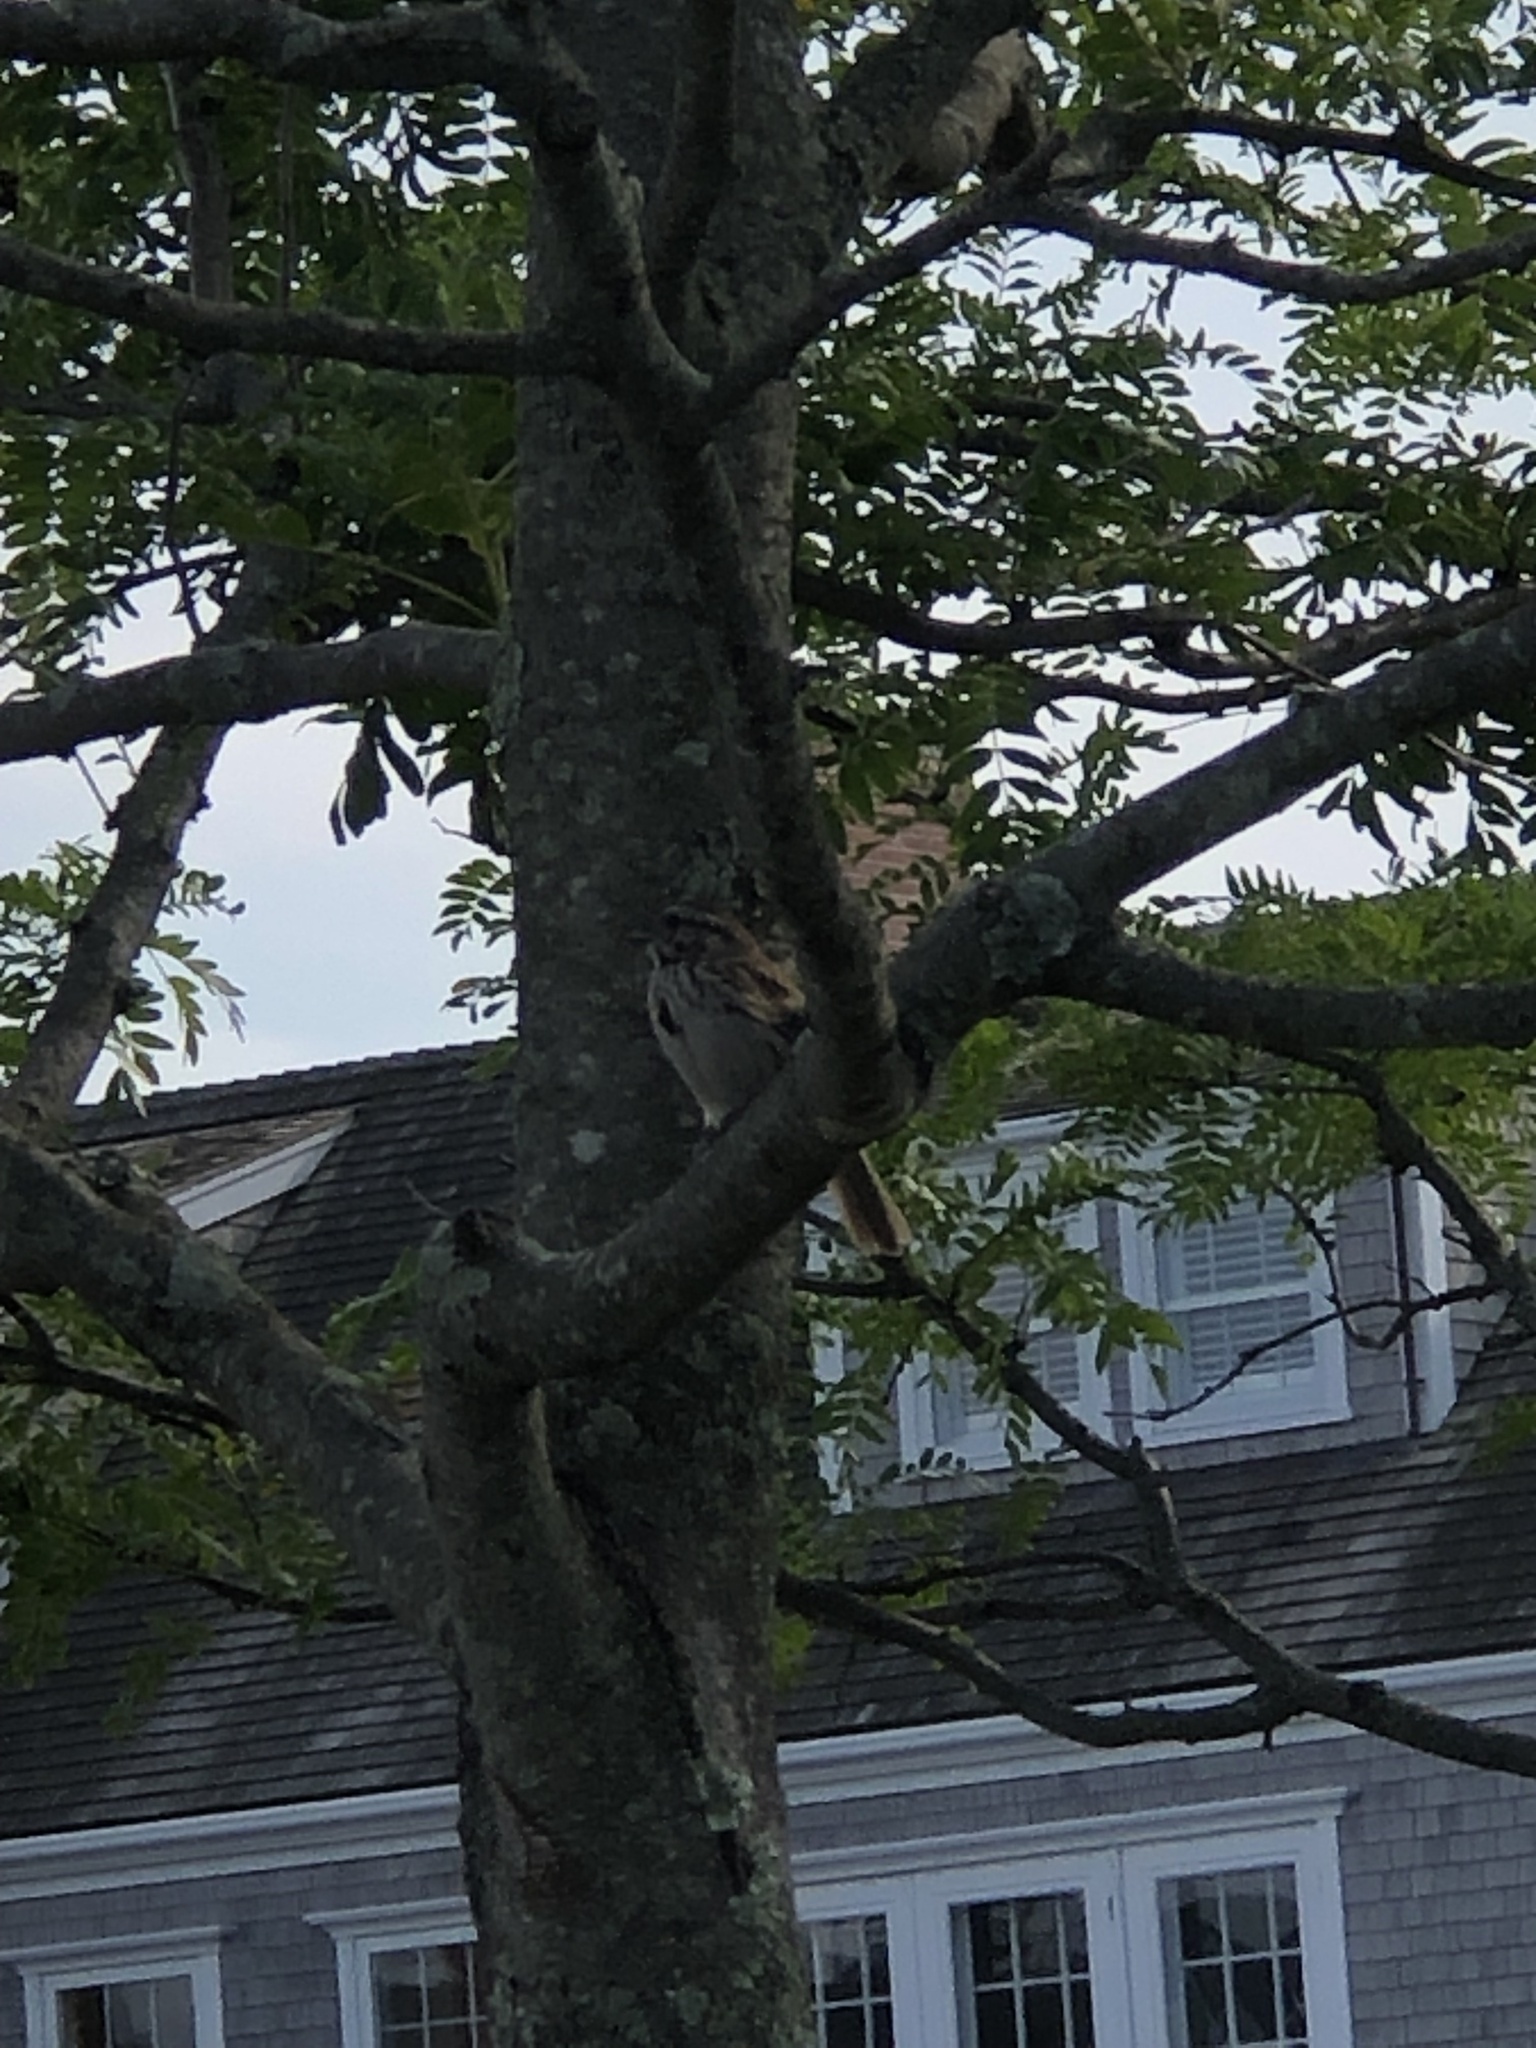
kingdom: Animalia
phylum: Chordata
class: Aves
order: Passeriformes
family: Passerellidae
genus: Melospiza
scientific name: Melospiza melodia
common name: Song sparrow
